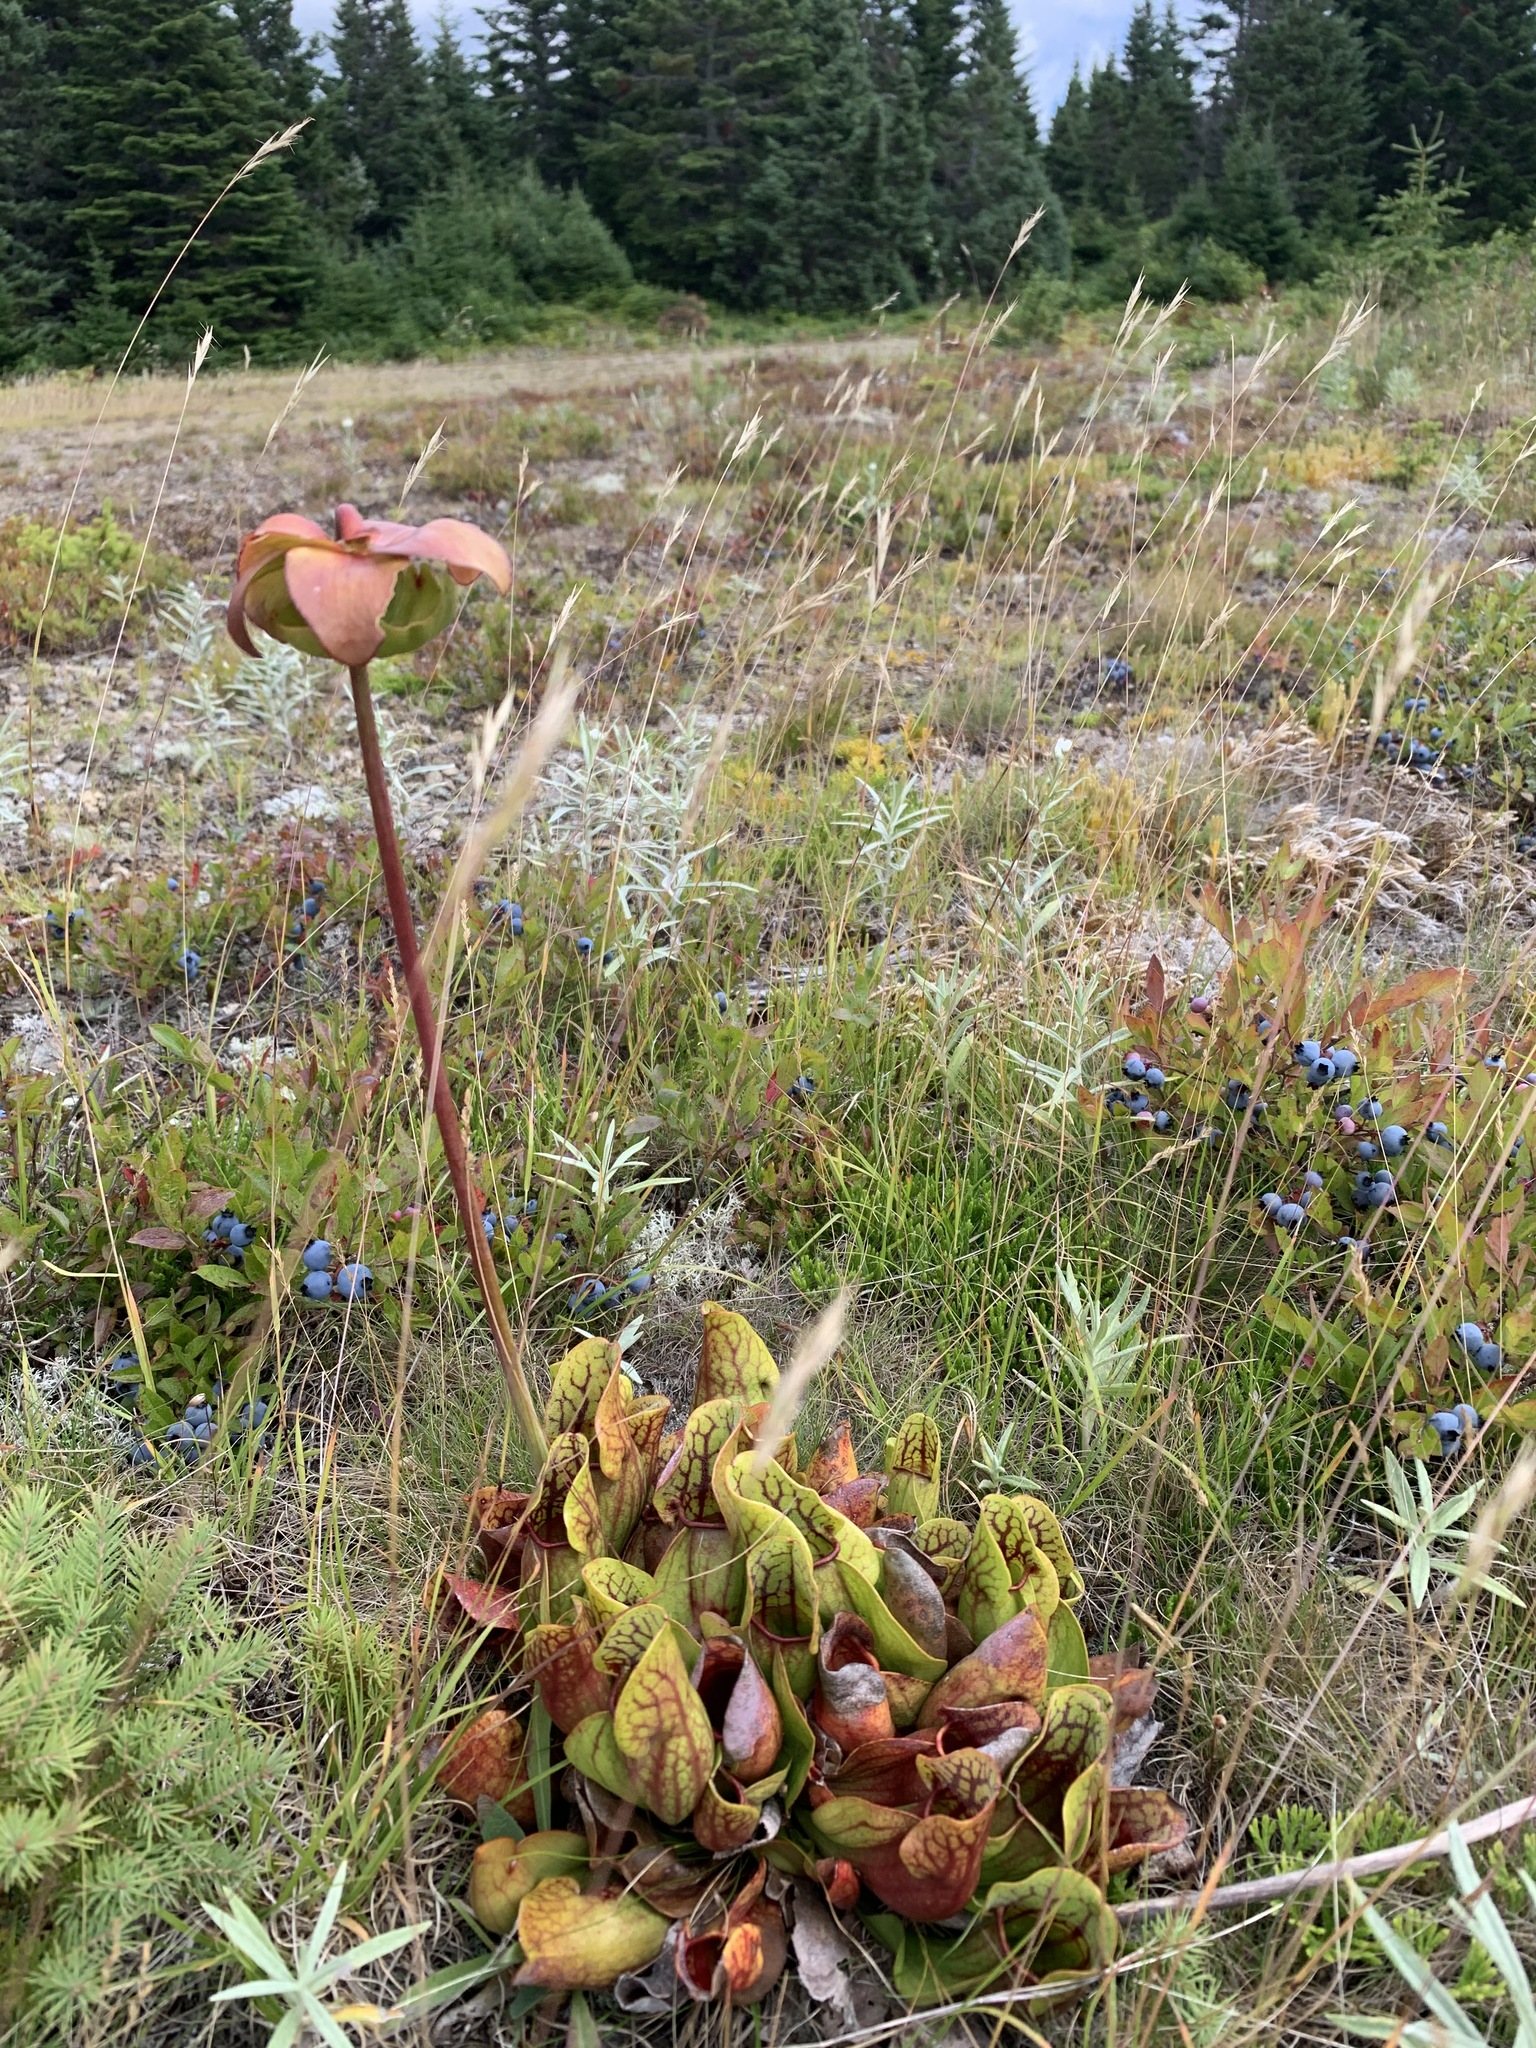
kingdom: Plantae
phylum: Tracheophyta
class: Magnoliopsida
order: Ericales
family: Sarraceniaceae
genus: Sarracenia
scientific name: Sarracenia purpurea
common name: Pitcherplant
